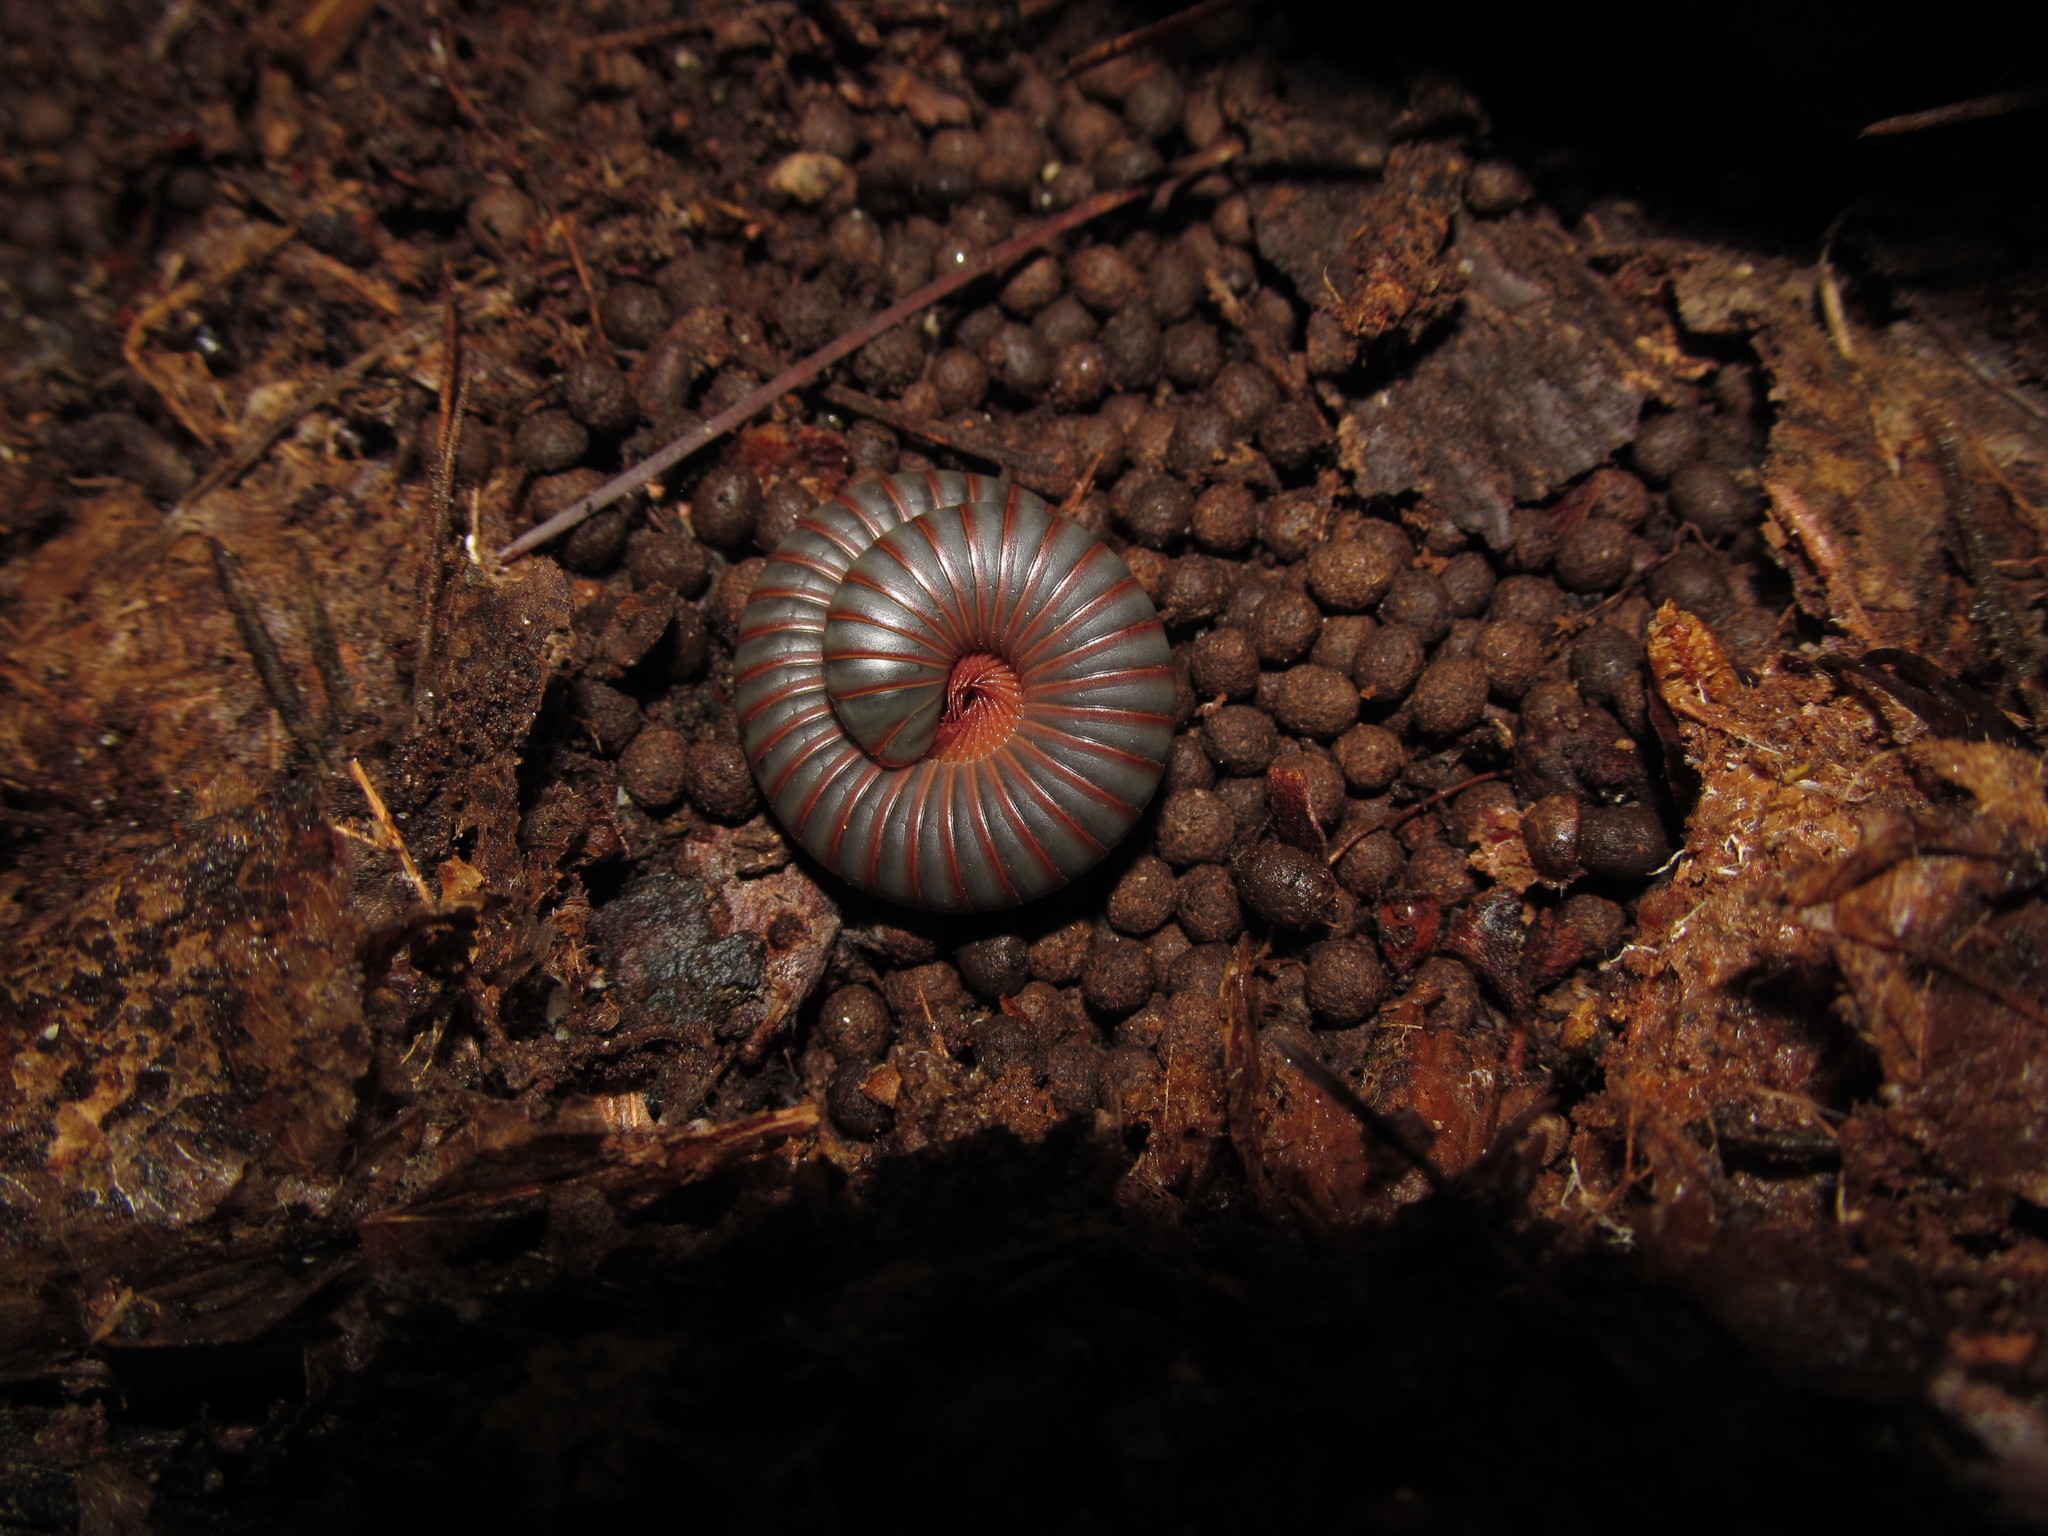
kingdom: Animalia
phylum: Arthropoda
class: Diplopoda
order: Spirobolida
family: Spirobolidae
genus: Narceus
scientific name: Narceus
